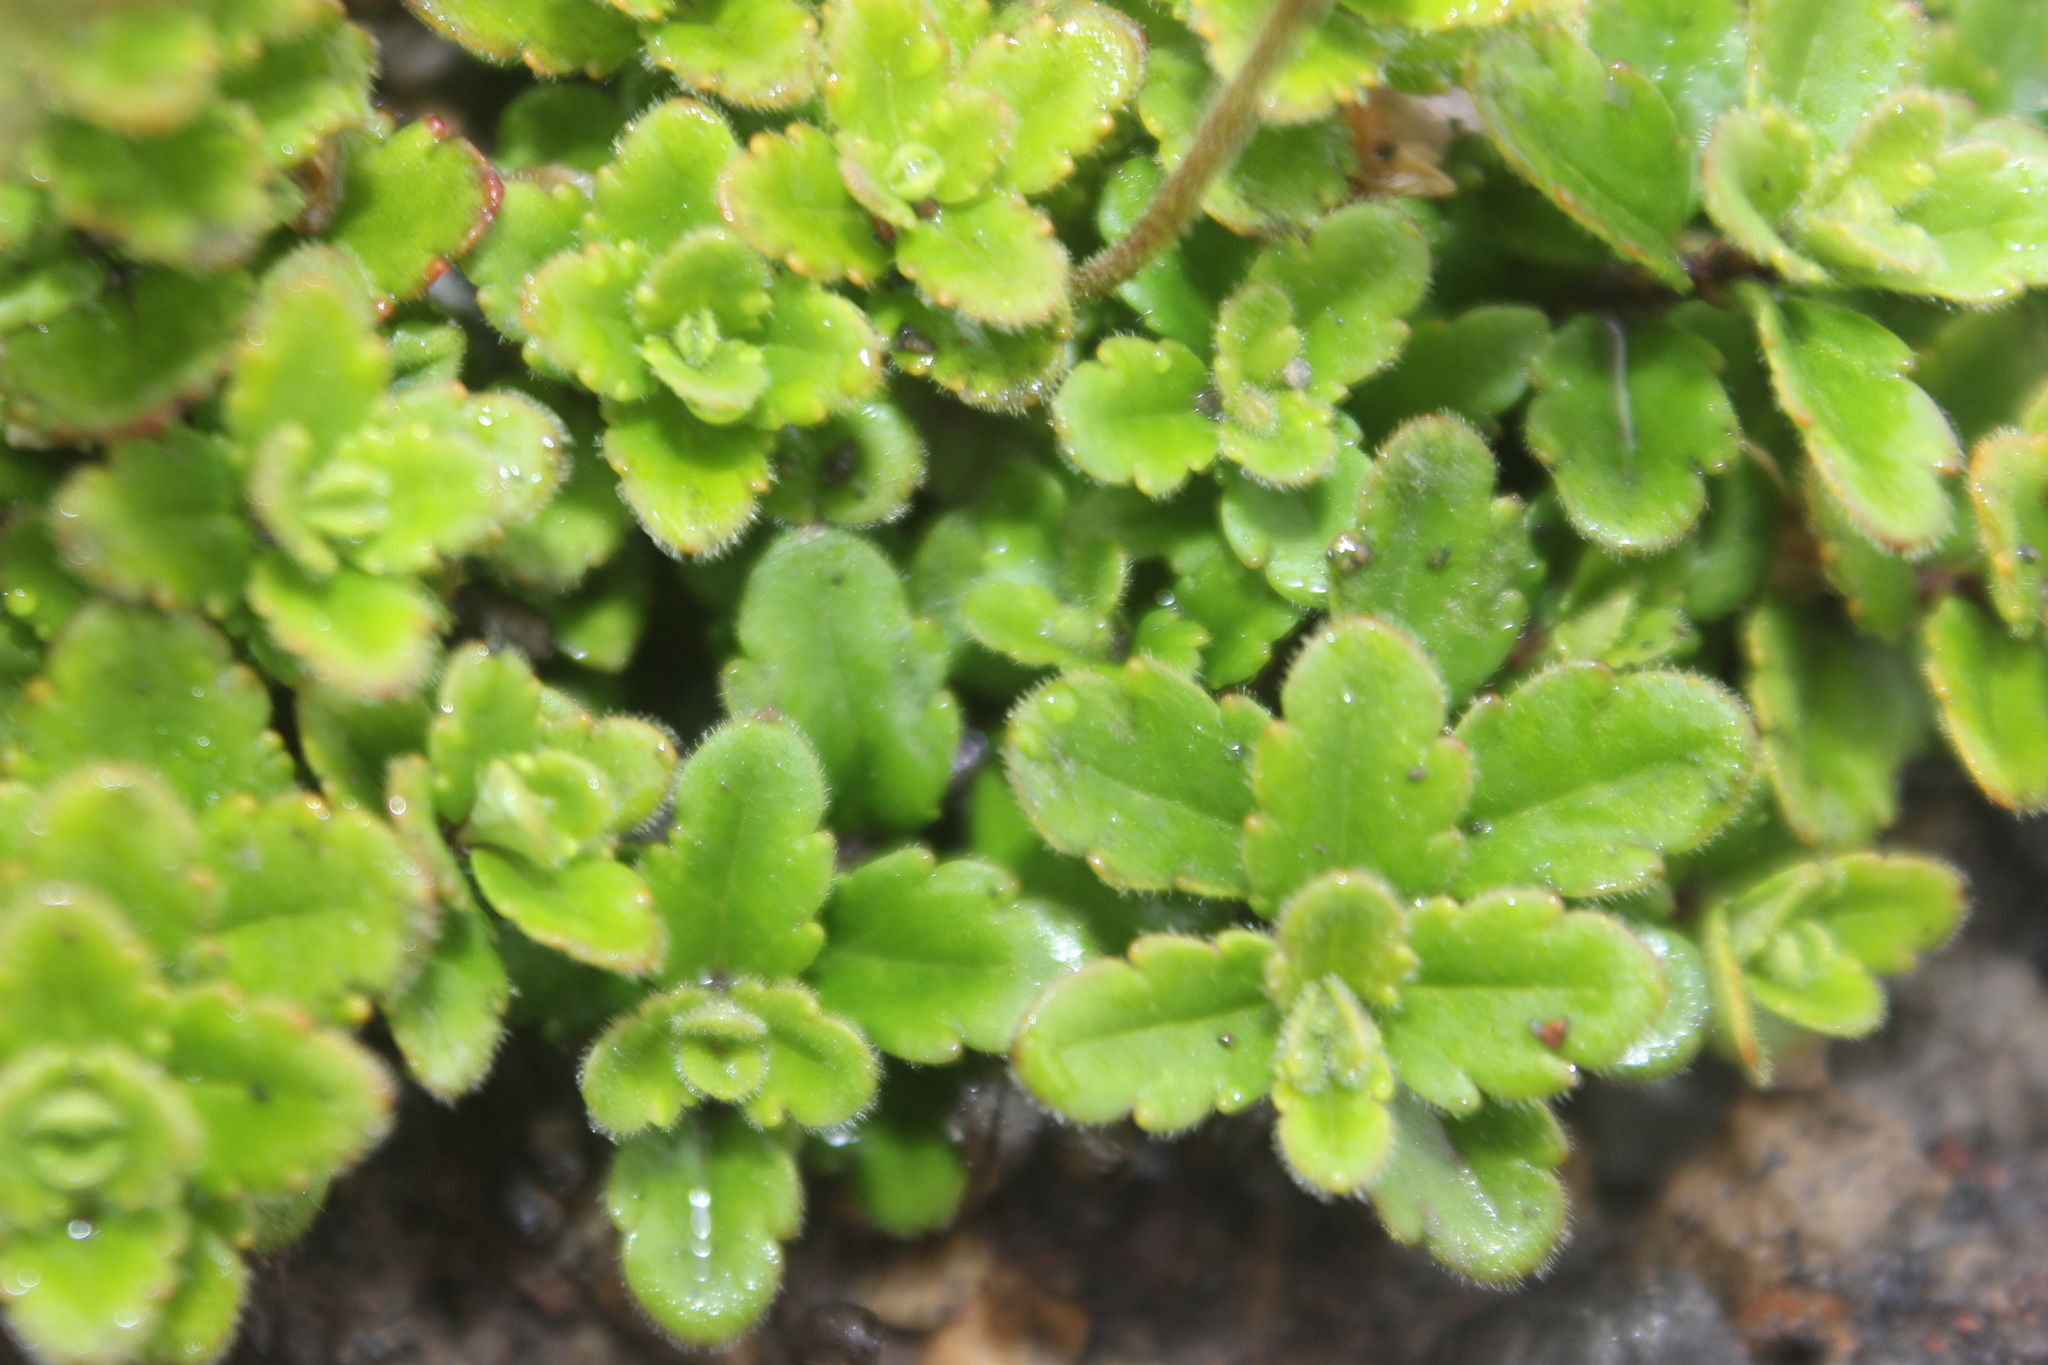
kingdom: Plantae
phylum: Tracheophyta
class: Magnoliopsida
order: Lamiales
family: Plantaginaceae
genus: Veronica
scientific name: Veronica hookeriana
